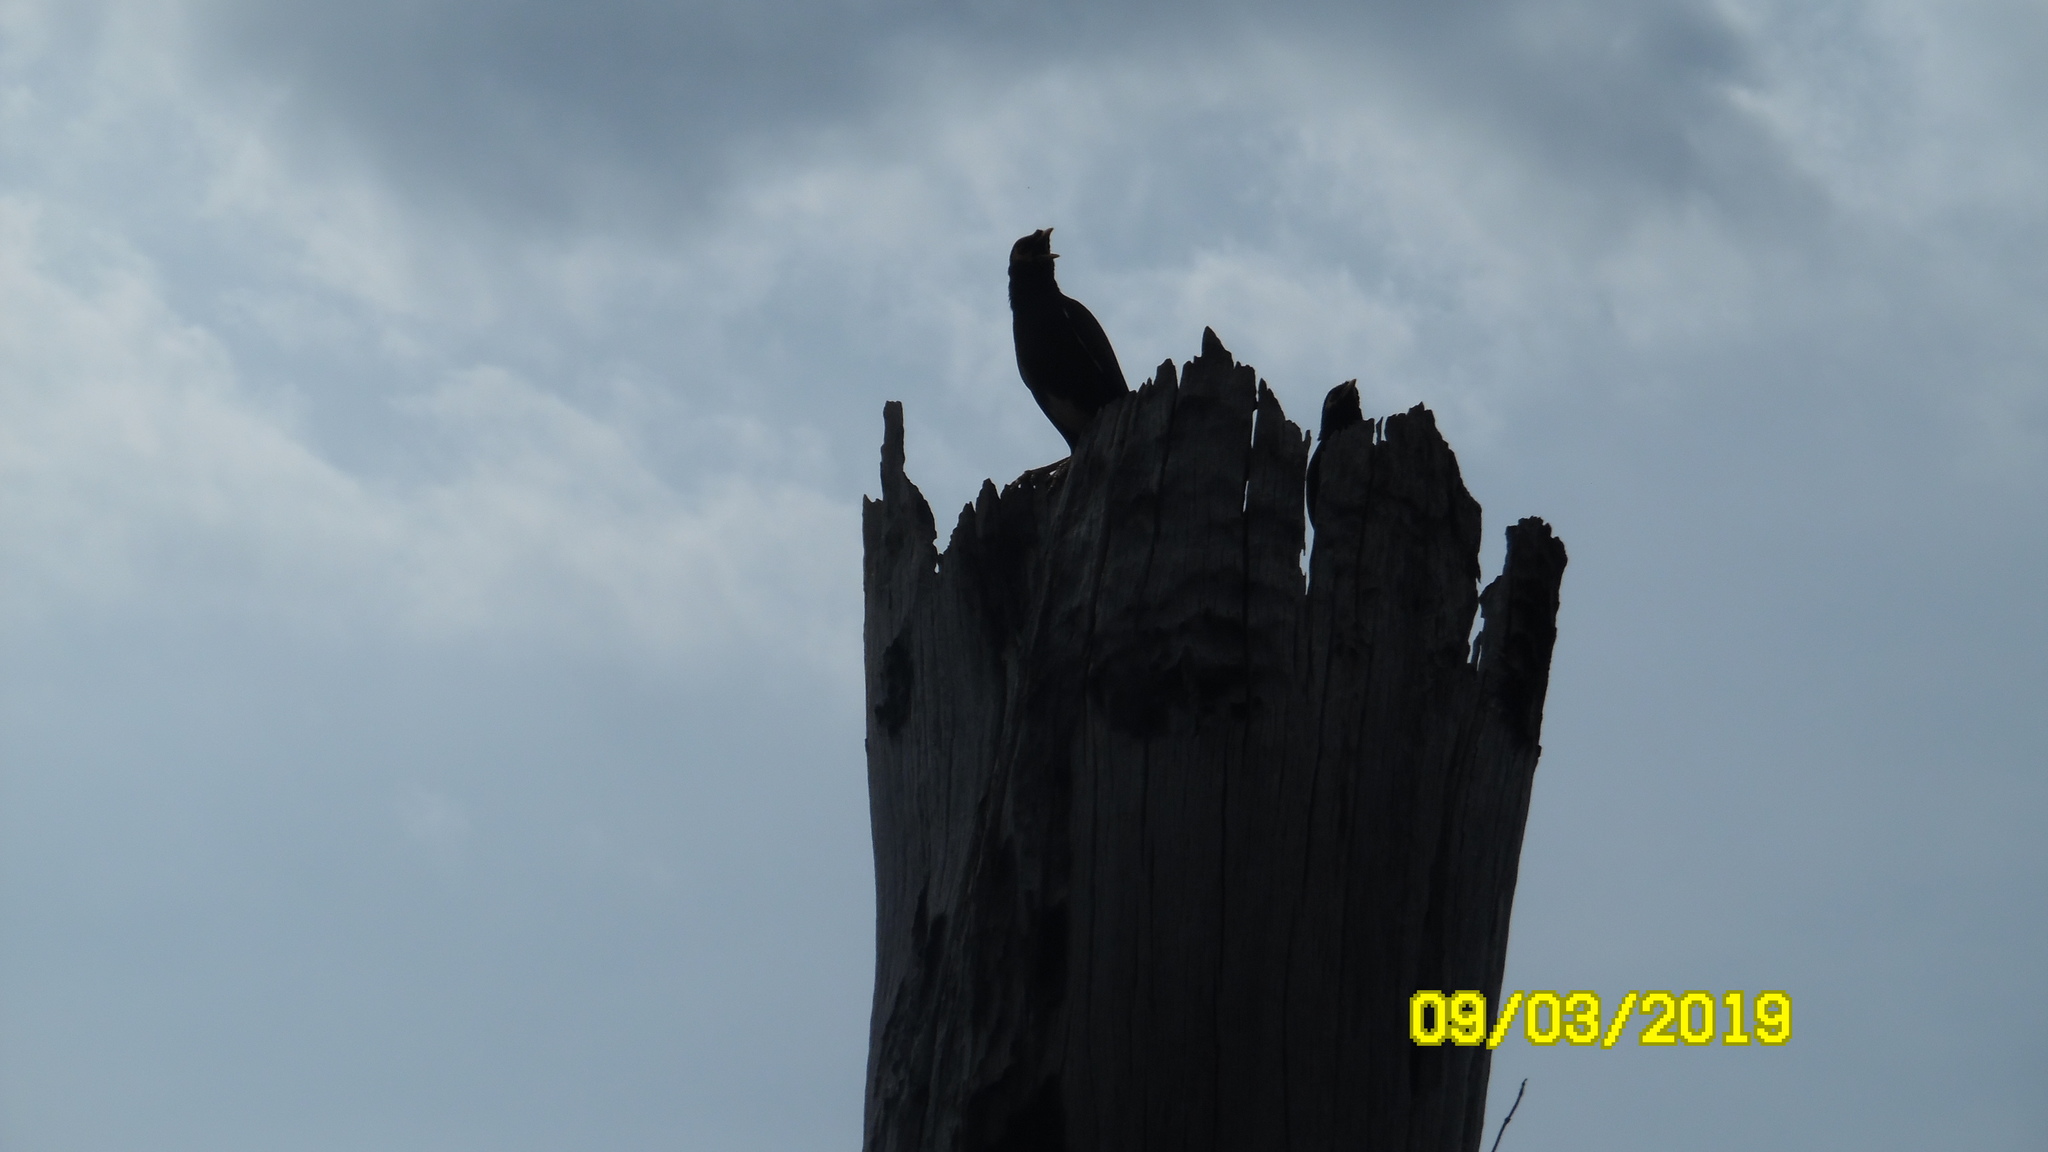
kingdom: Animalia
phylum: Chordata
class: Aves
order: Passeriformes
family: Sturnidae
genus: Acridotheres
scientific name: Acridotheres tristis
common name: Common myna
